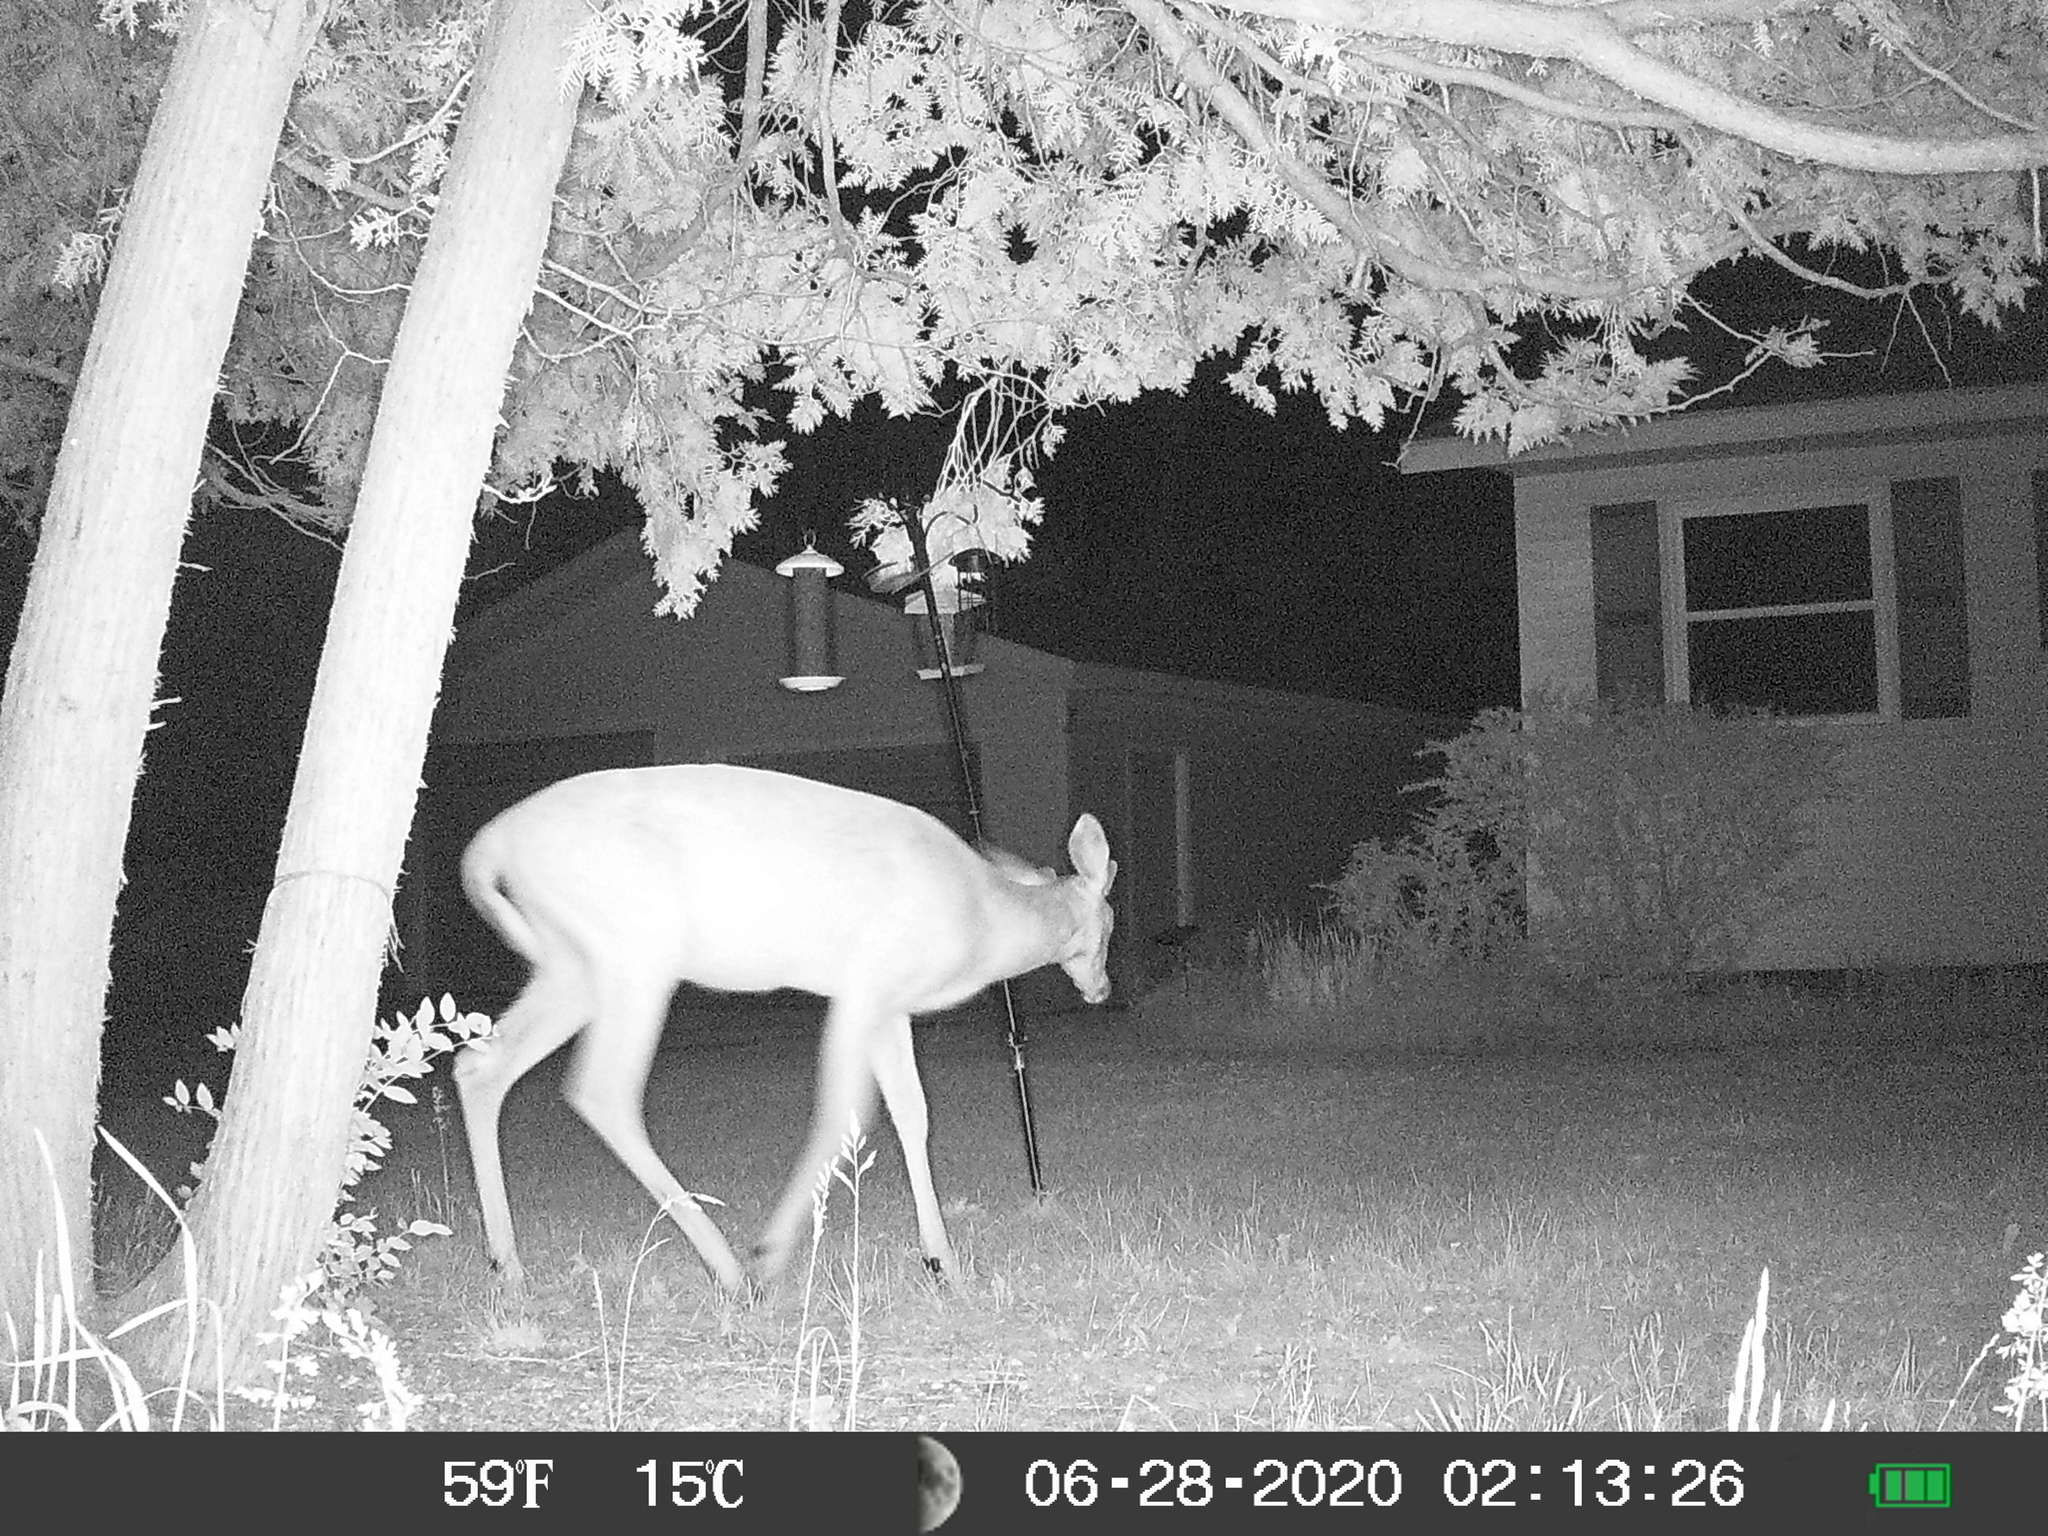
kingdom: Animalia
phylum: Chordata
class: Mammalia
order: Artiodactyla
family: Cervidae
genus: Odocoileus
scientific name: Odocoileus virginianus
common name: White-tailed deer
